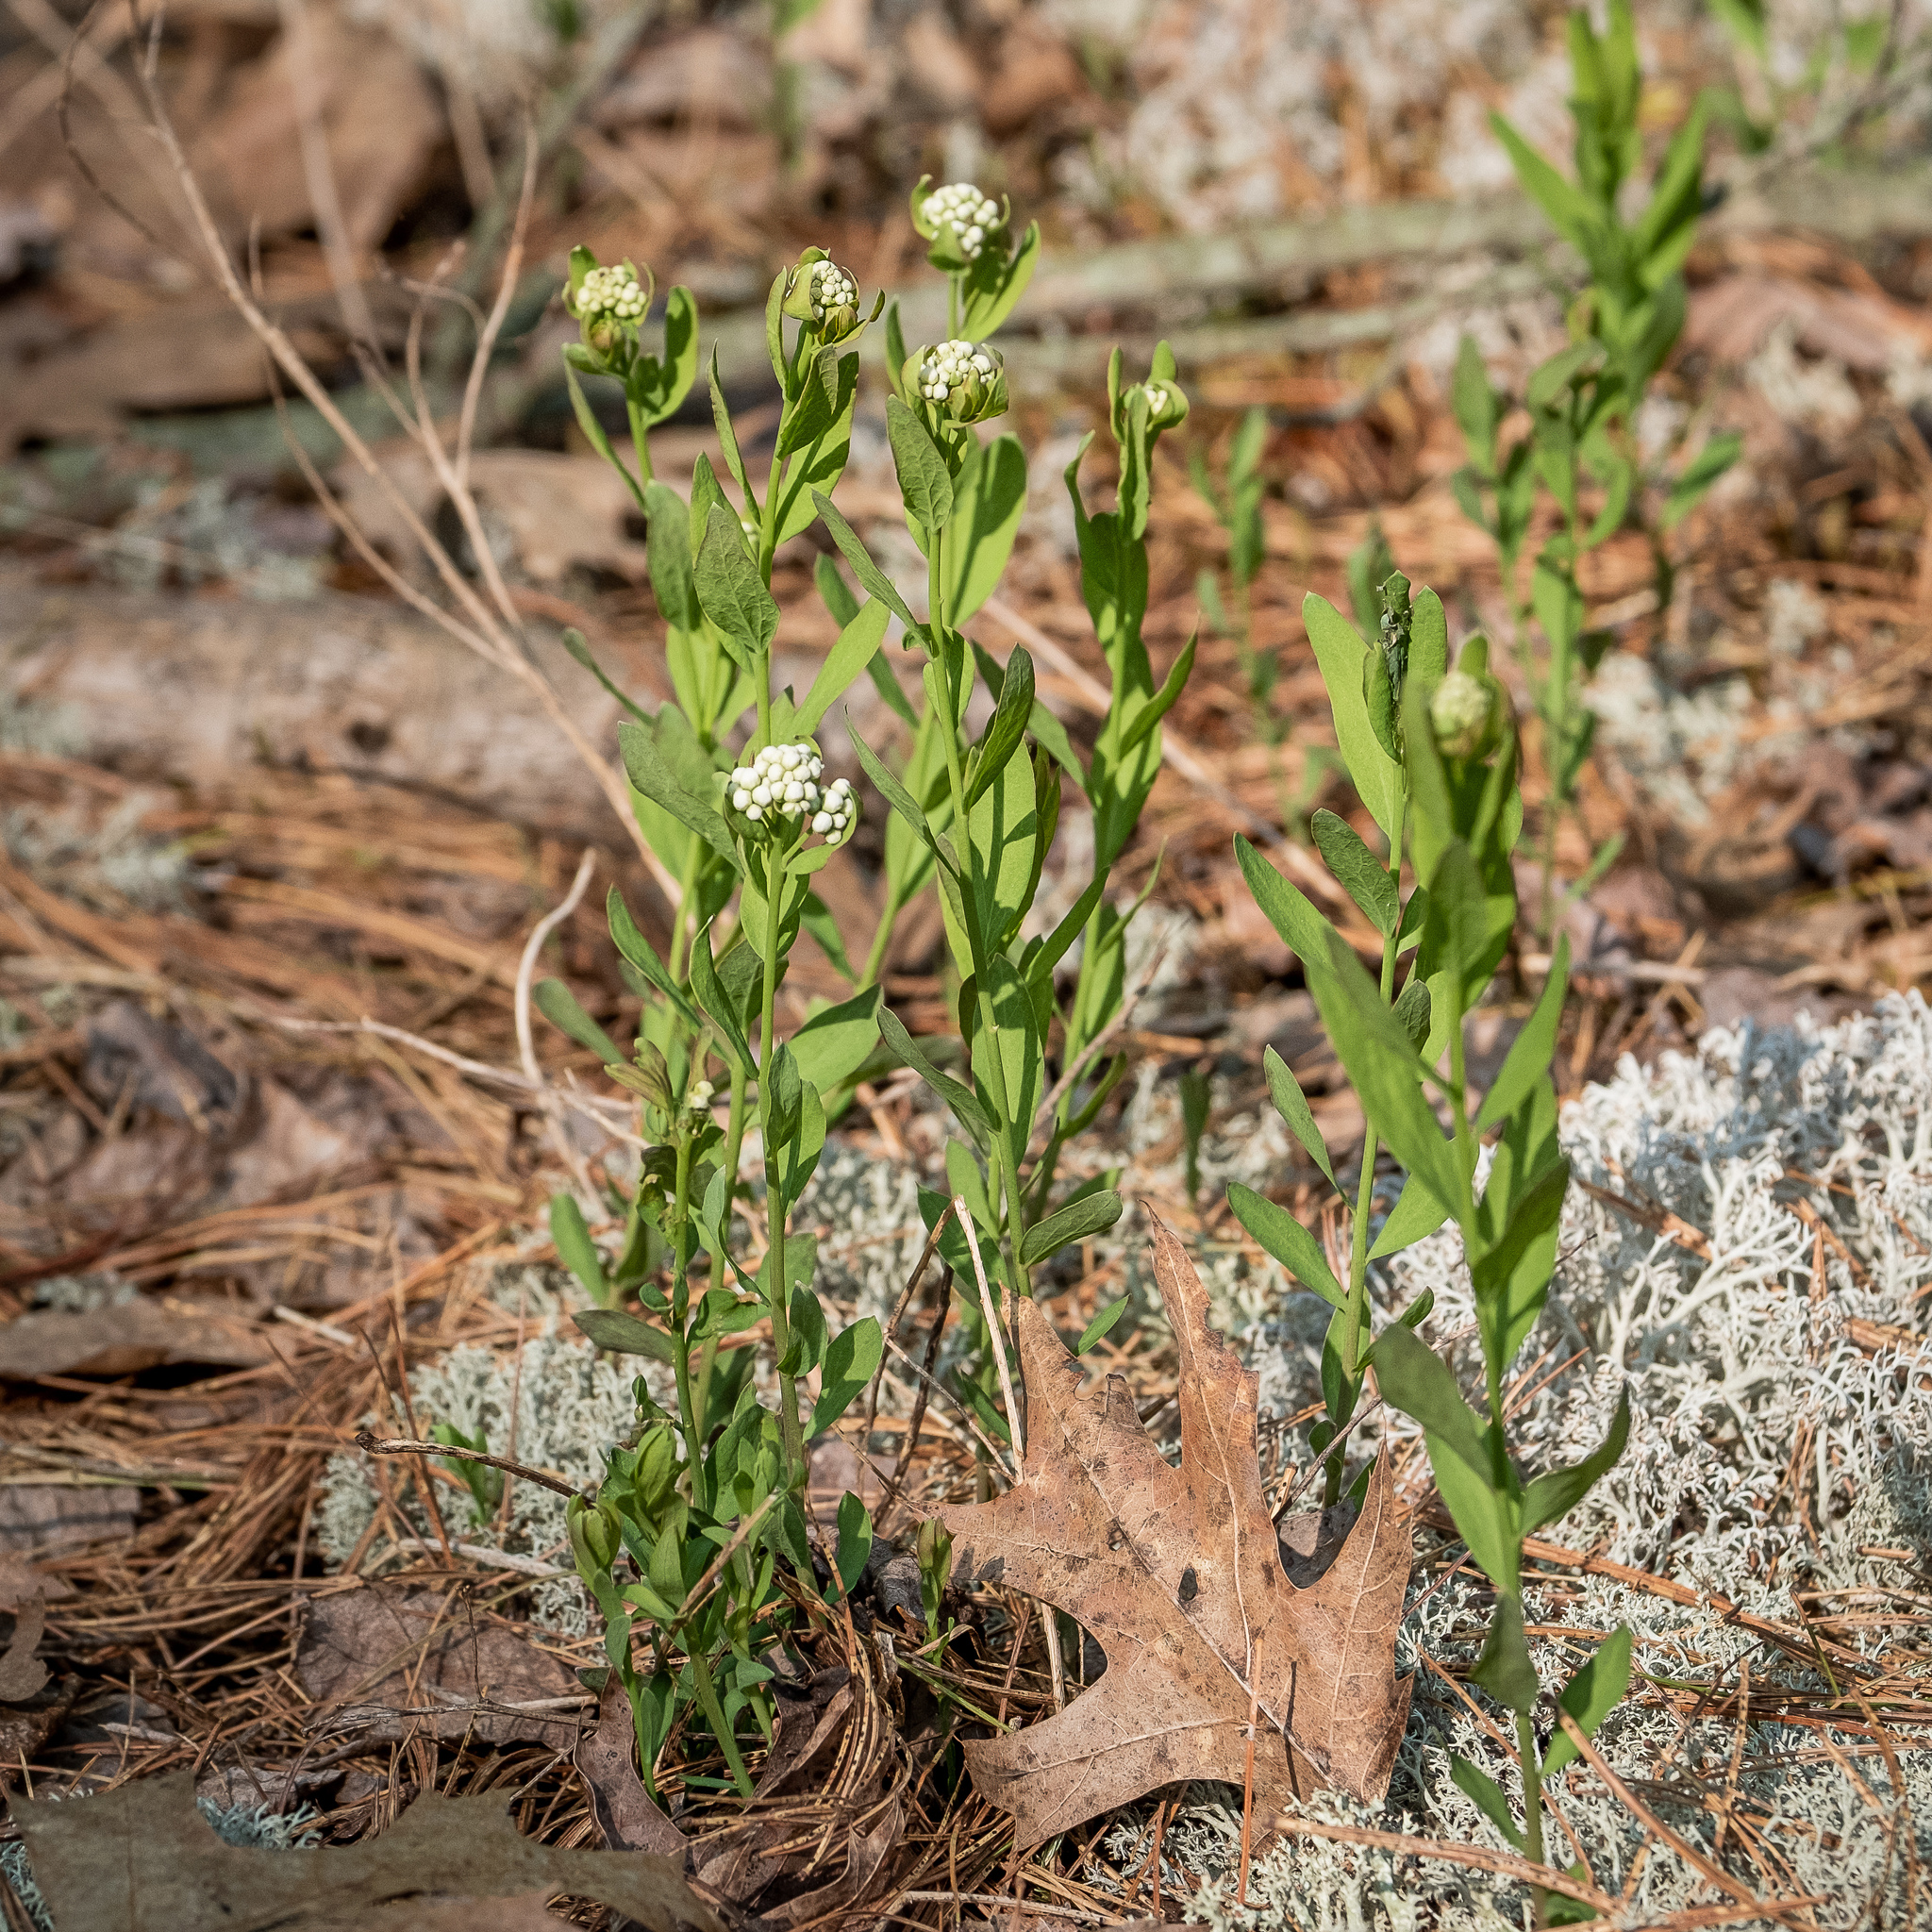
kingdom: Plantae
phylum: Tracheophyta
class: Magnoliopsida
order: Santalales
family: Comandraceae
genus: Comandra
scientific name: Comandra umbellata
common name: Bastard toadflax
